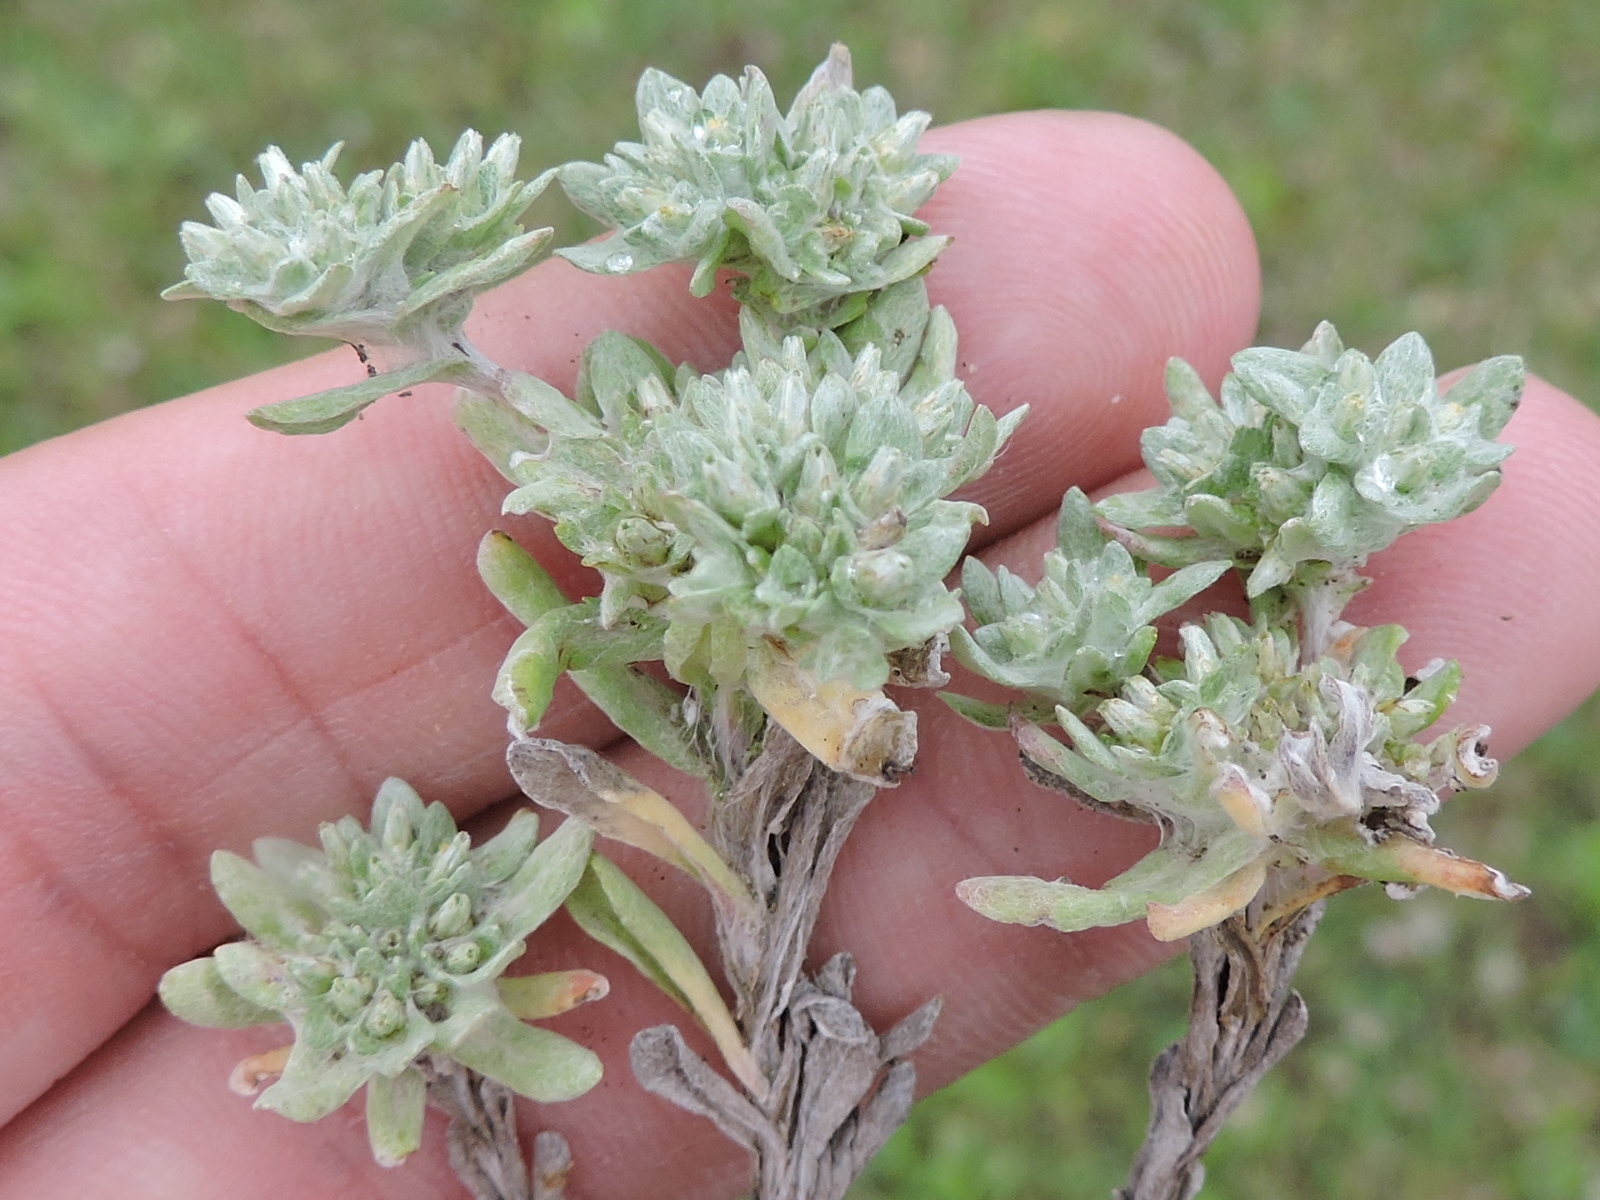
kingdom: Plantae
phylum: Tracheophyta
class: Magnoliopsida
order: Asterales
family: Asteraceae
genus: Diaperia
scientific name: Diaperia prolifera
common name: Big-head rabbit-tobacco
